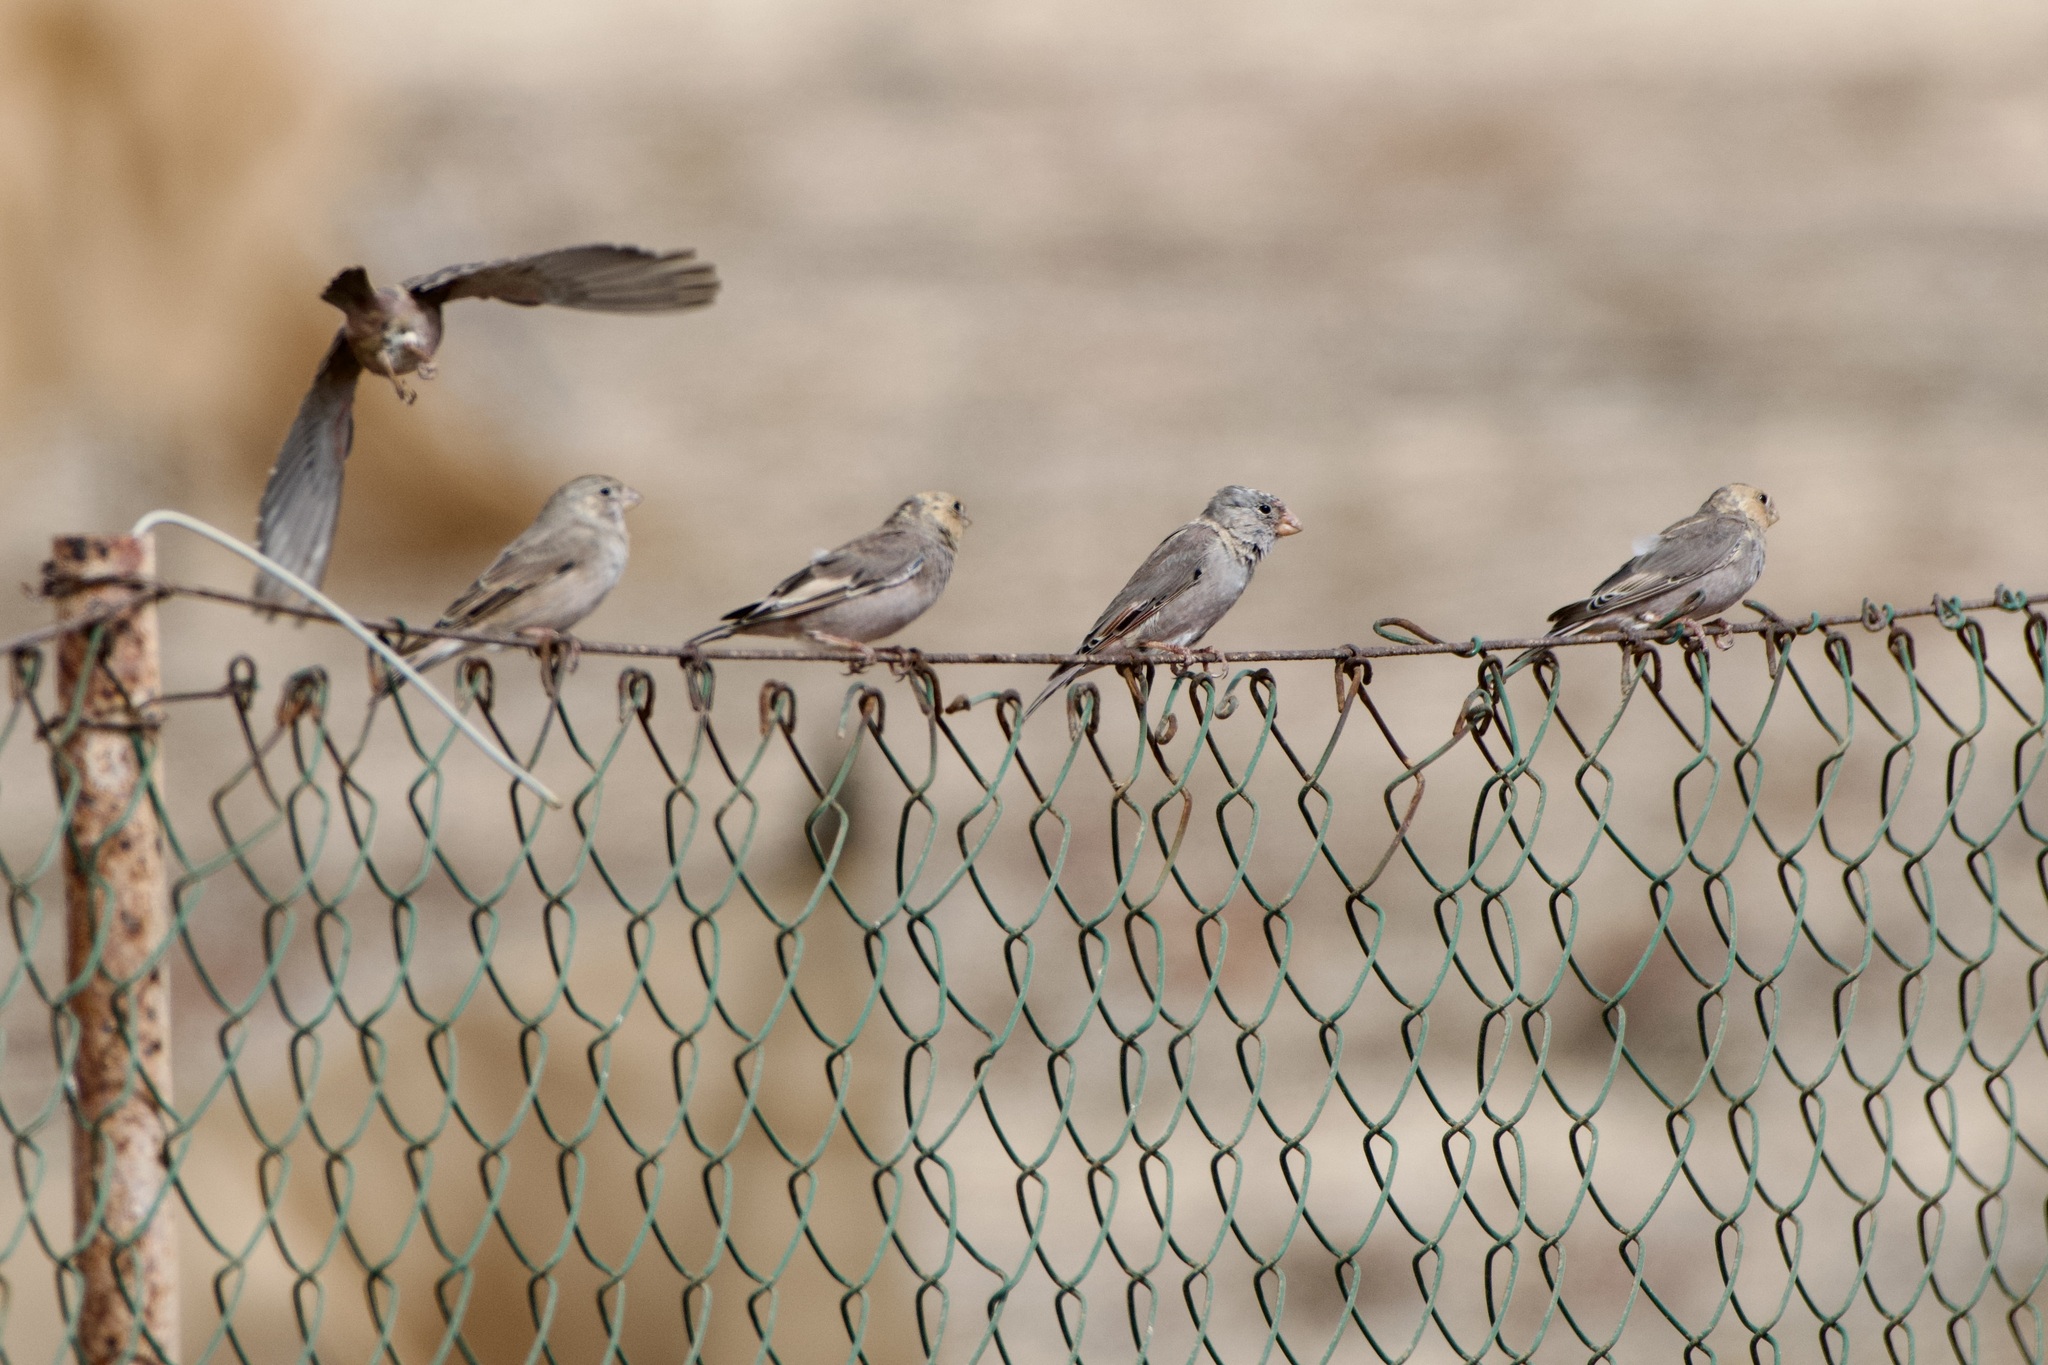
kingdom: Animalia
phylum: Chordata
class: Aves
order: Passeriformes
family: Fringillidae
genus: Bucanetes
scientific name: Bucanetes githagineus
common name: Trumpeter finch
